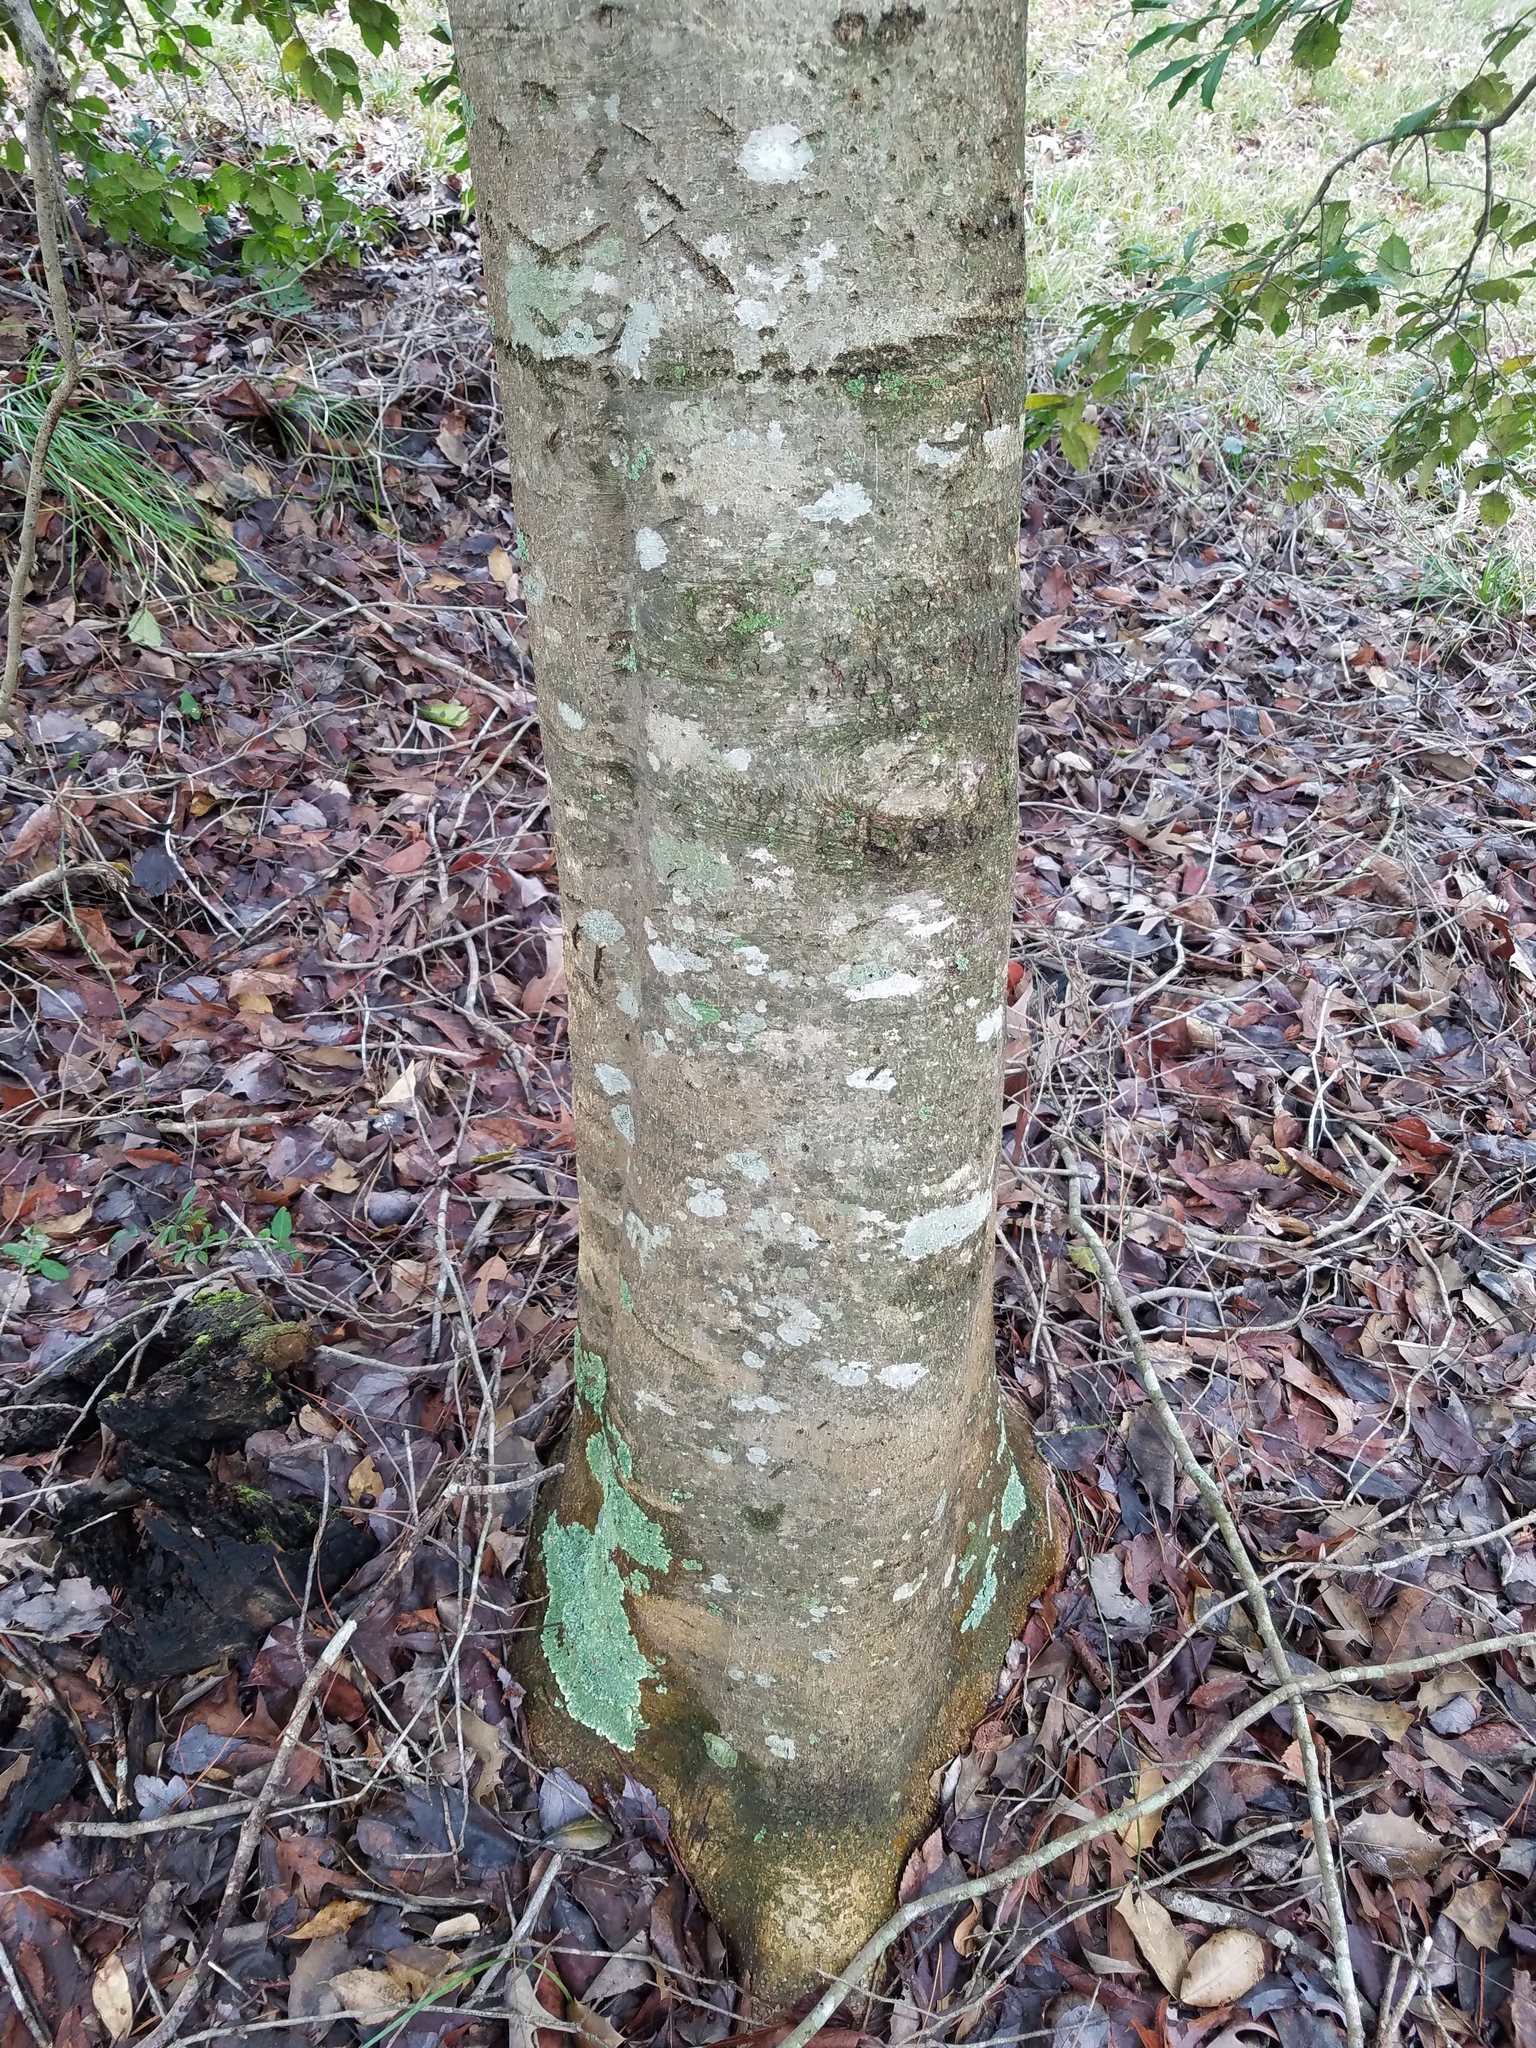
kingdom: Plantae
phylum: Tracheophyta
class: Magnoliopsida
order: Aquifoliales
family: Aquifoliaceae
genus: Ilex
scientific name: Ilex opaca
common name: American holly
